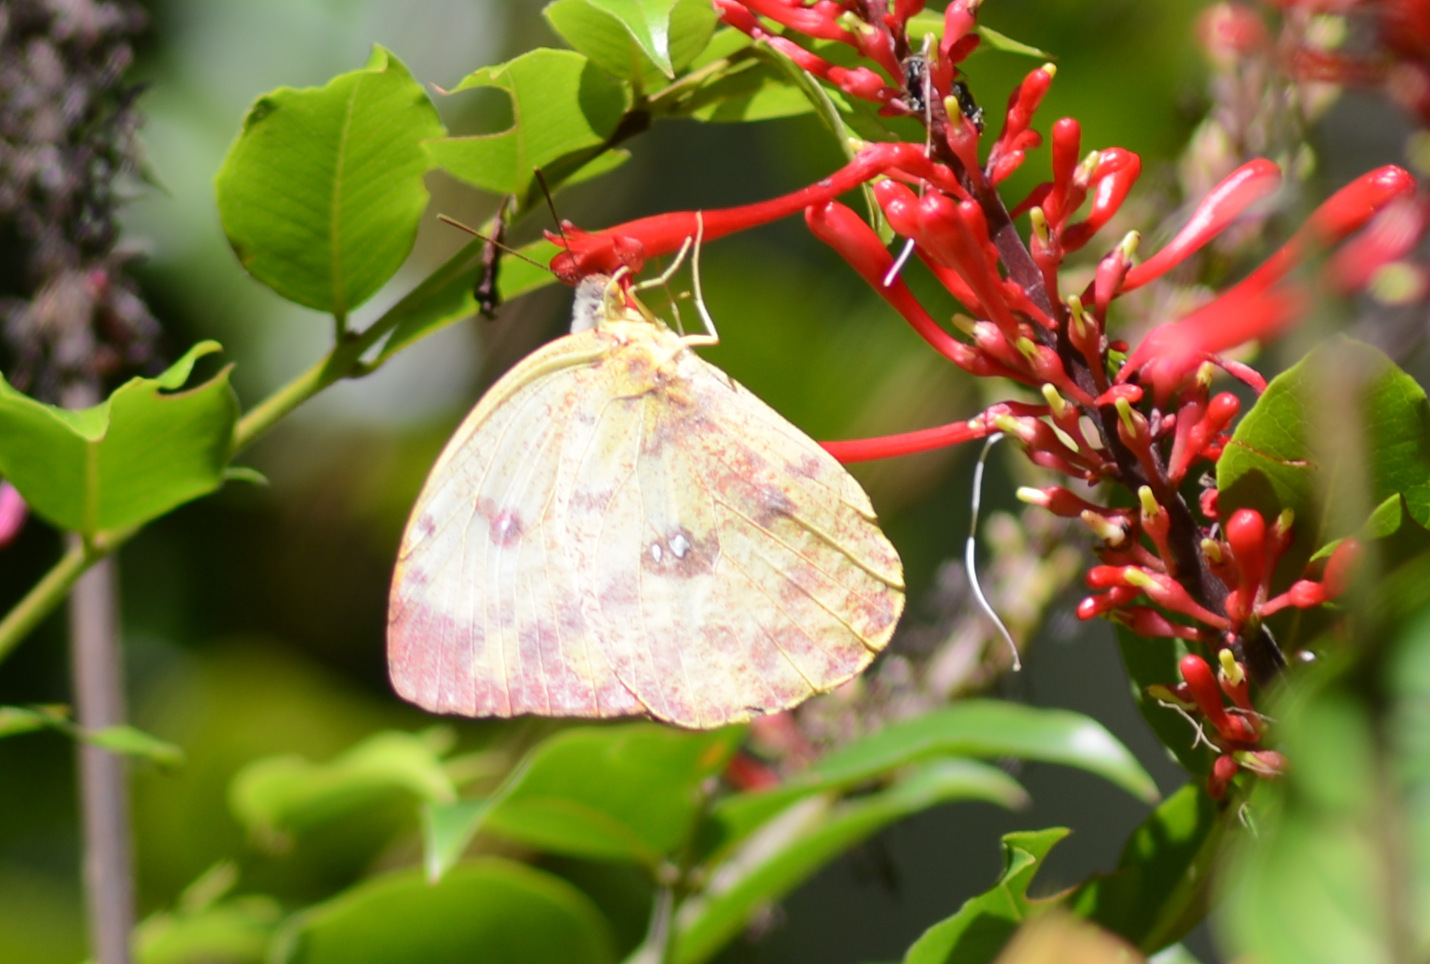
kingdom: Animalia
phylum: Arthropoda
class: Insecta
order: Lepidoptera
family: Pieridae
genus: Phoebis
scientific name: Phoebis argante
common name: Apricot sulphur
